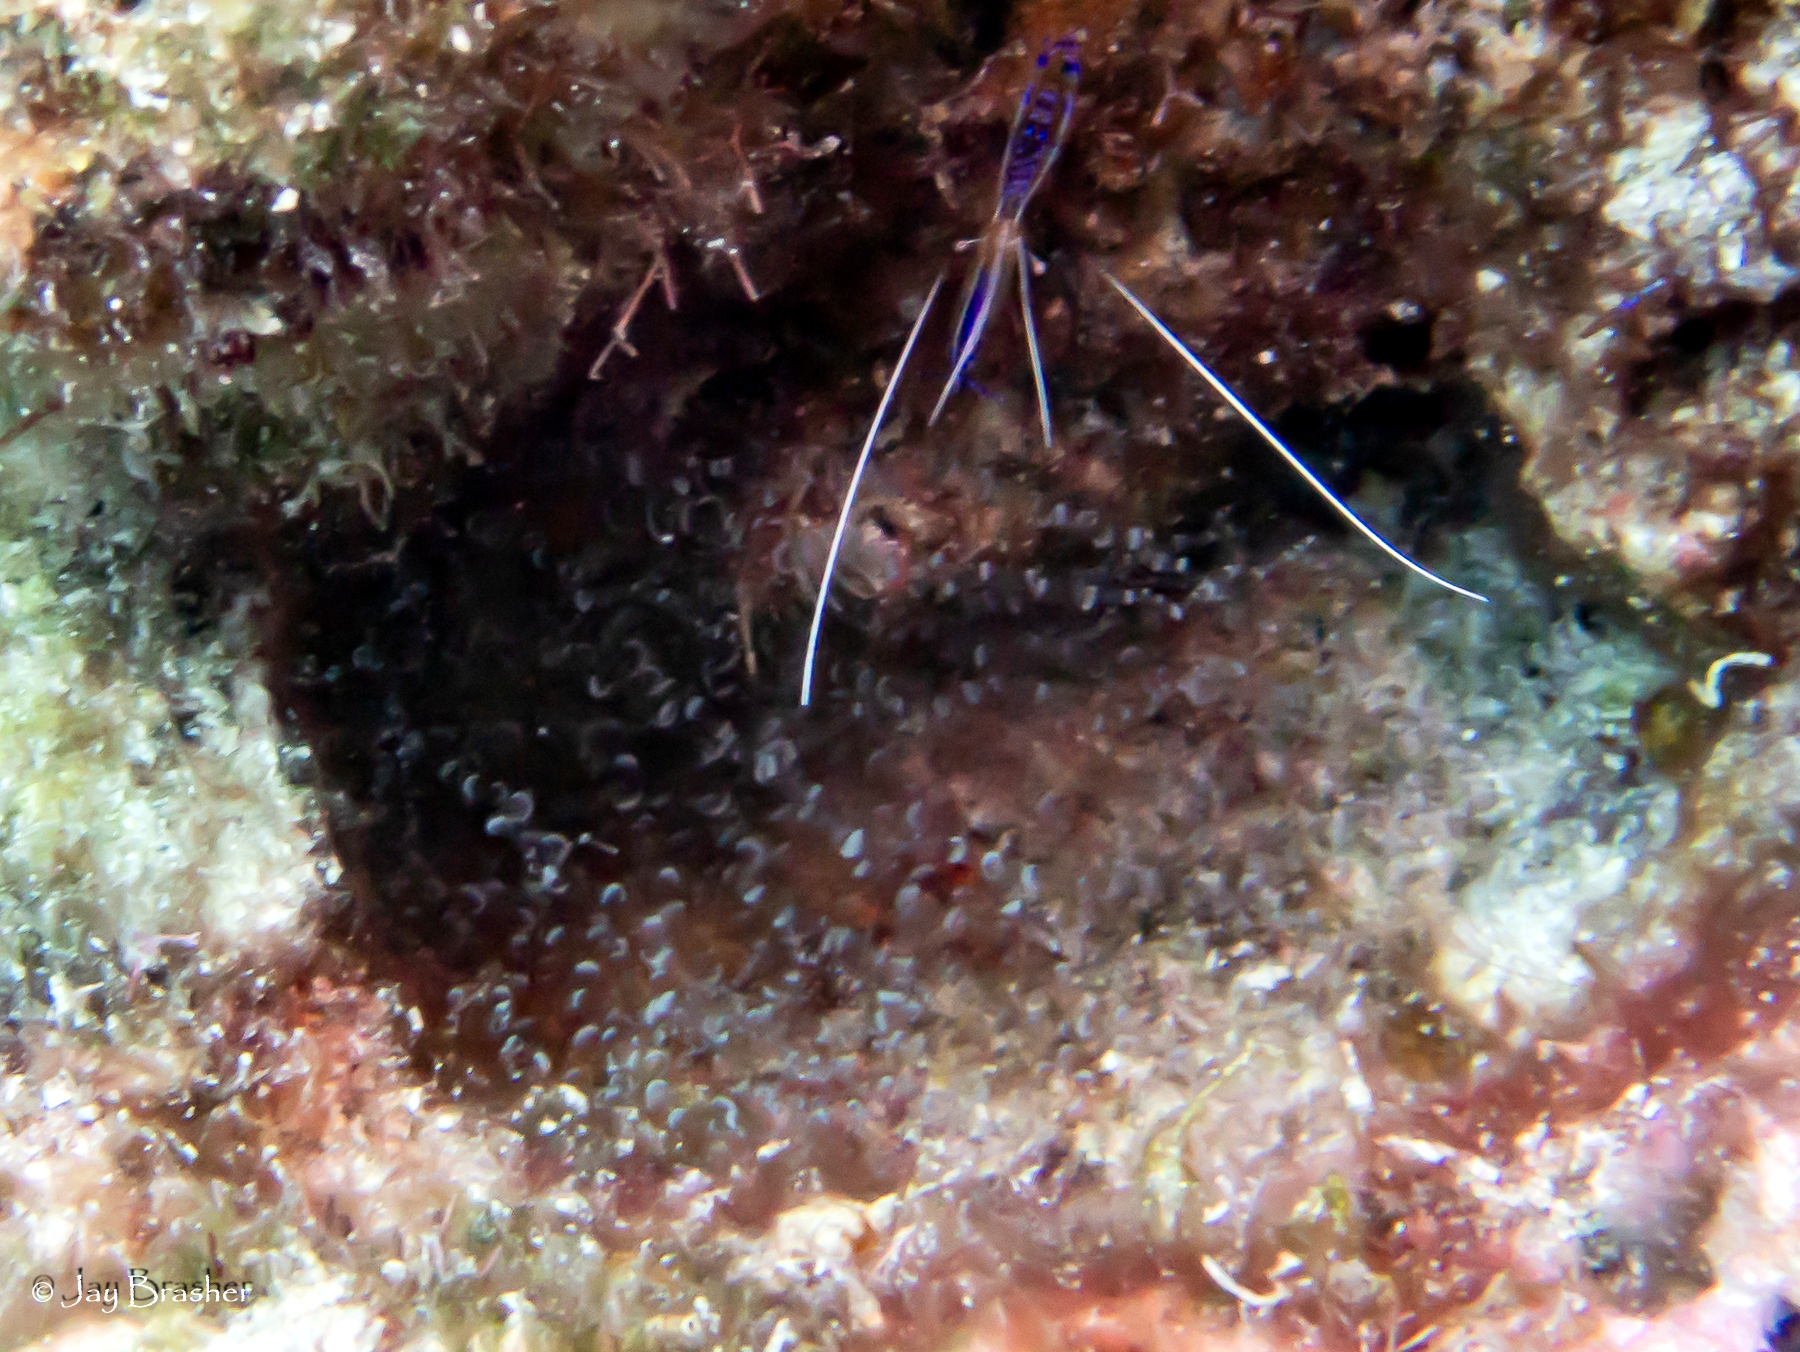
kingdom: Animalia
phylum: Cnidaria
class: Anthozoa
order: Actiniaria
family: Aiptasiidae
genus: Bartholomea
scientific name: Bartholomea annulata
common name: Corkscrew anemone
